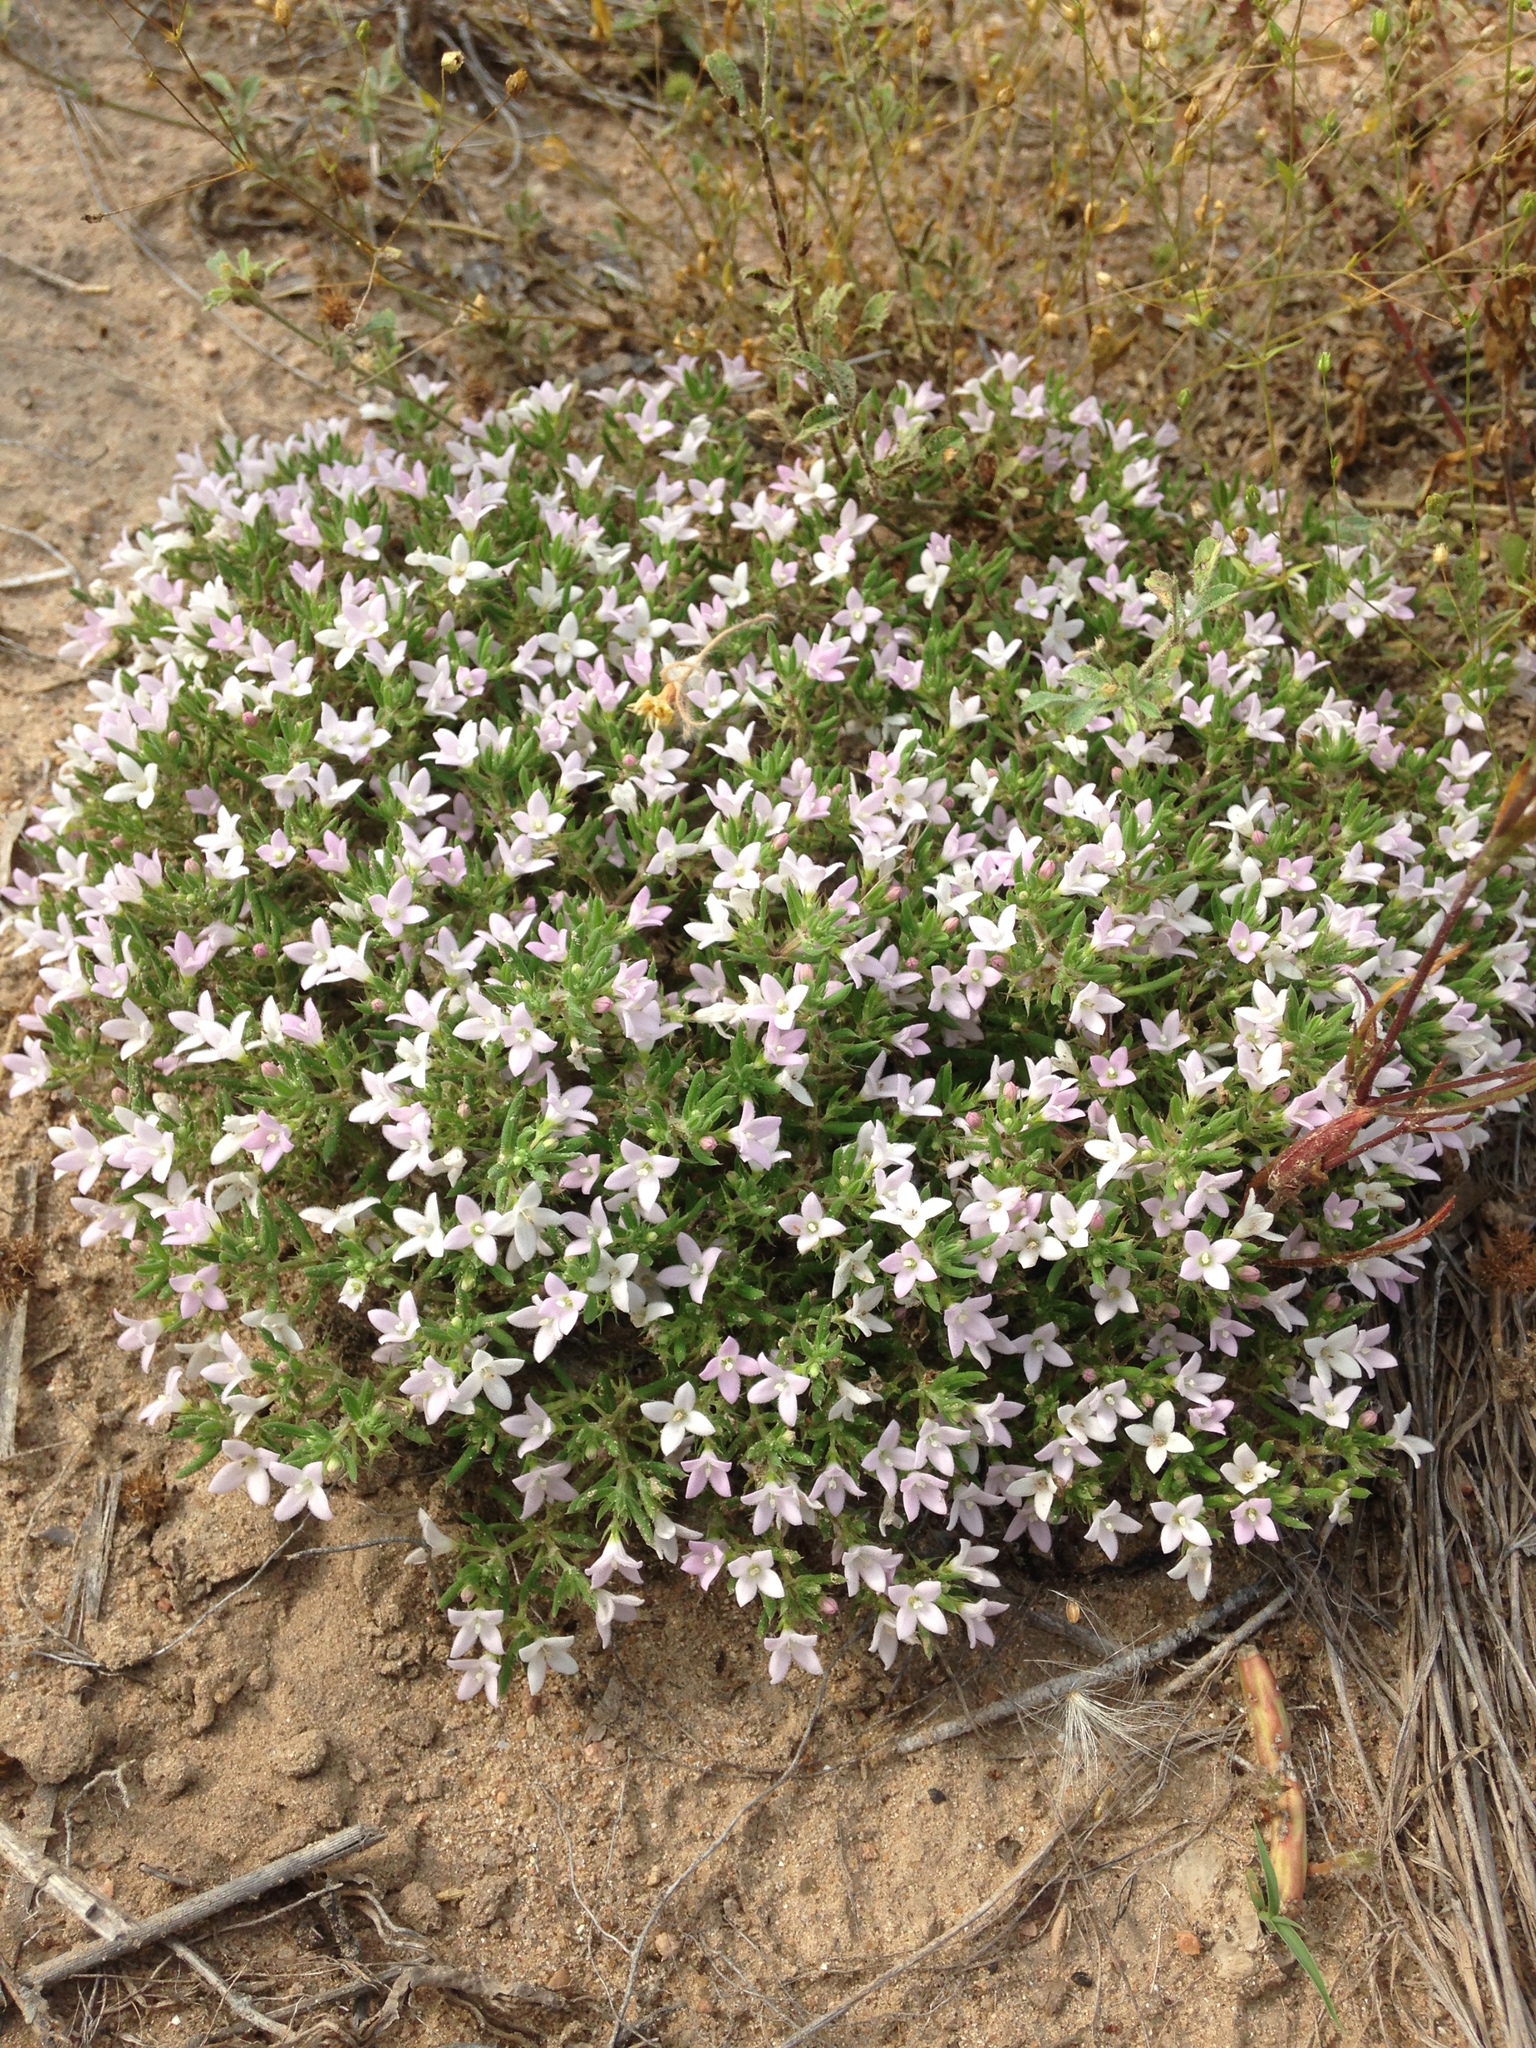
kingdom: Plantae
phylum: Tracheophyta
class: Magnoliopsida
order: Gentianales
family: Rubiaceae
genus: Houstonia
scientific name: Houstonia humifusa
